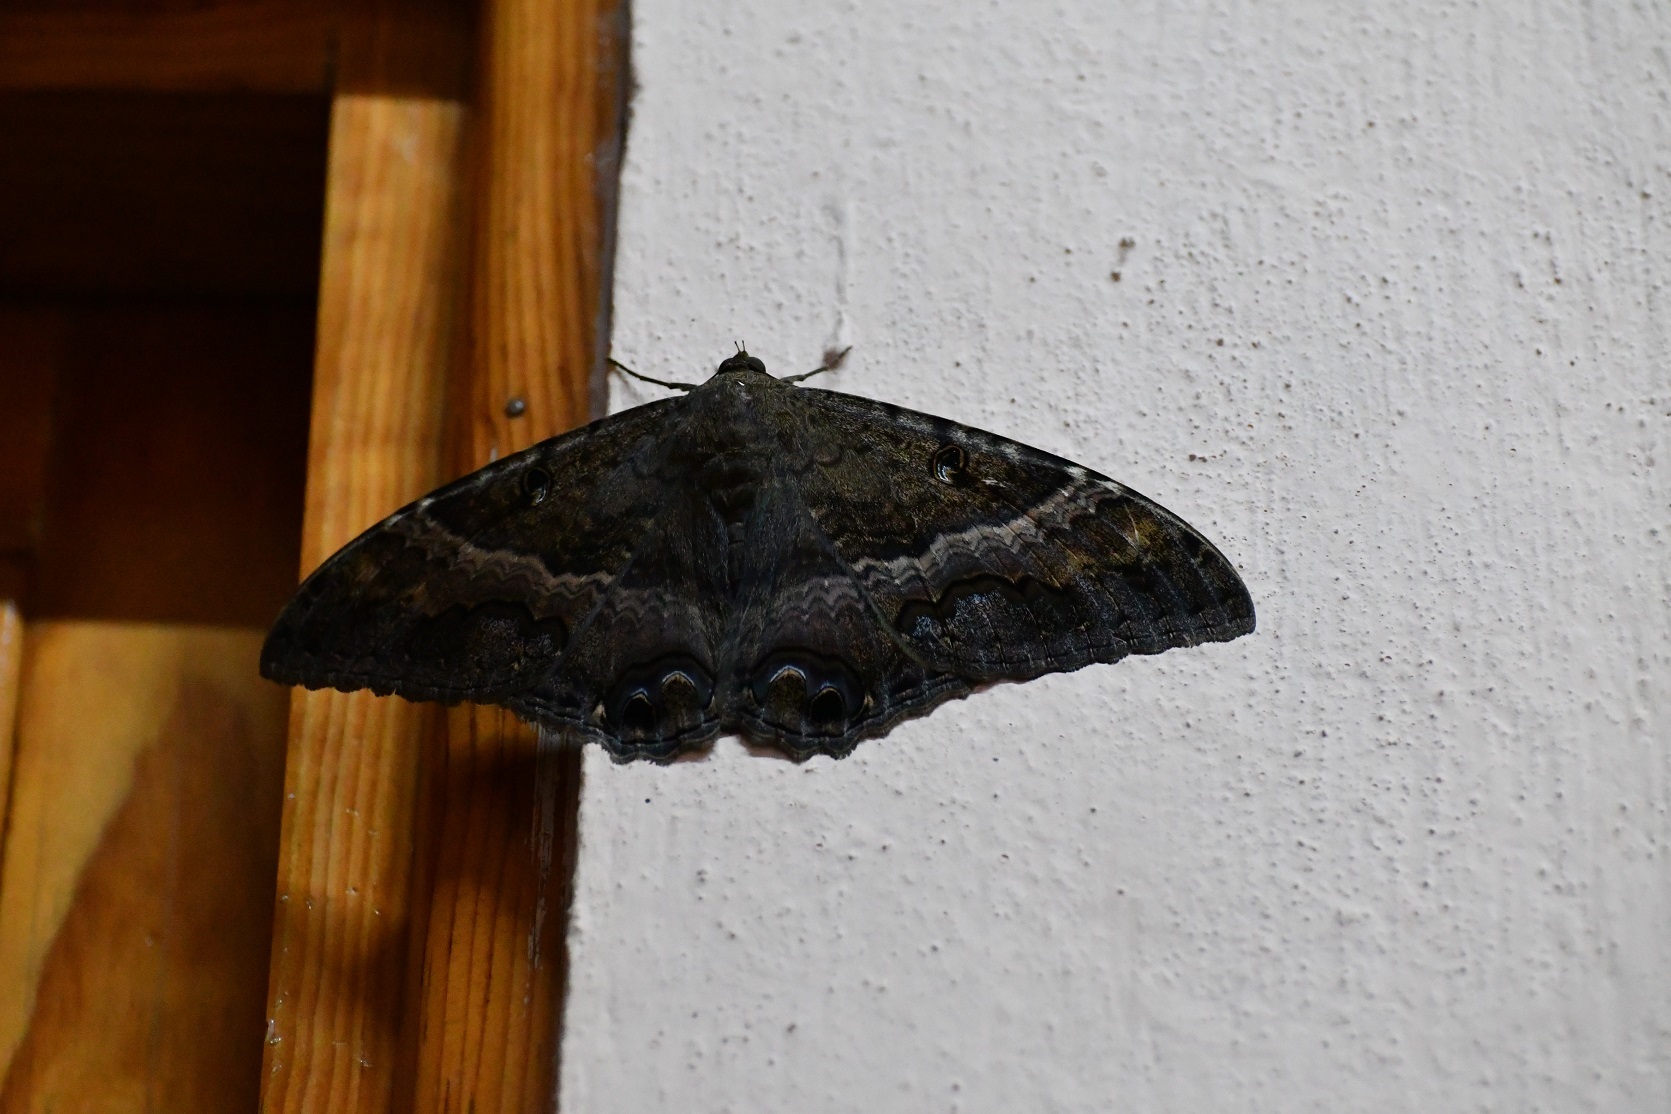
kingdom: Animalia
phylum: Arthropoda
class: Insecta
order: Lepidoptera
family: Erebidae
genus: Ascalapha
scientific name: Ascalapha odorata
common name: Black witch
